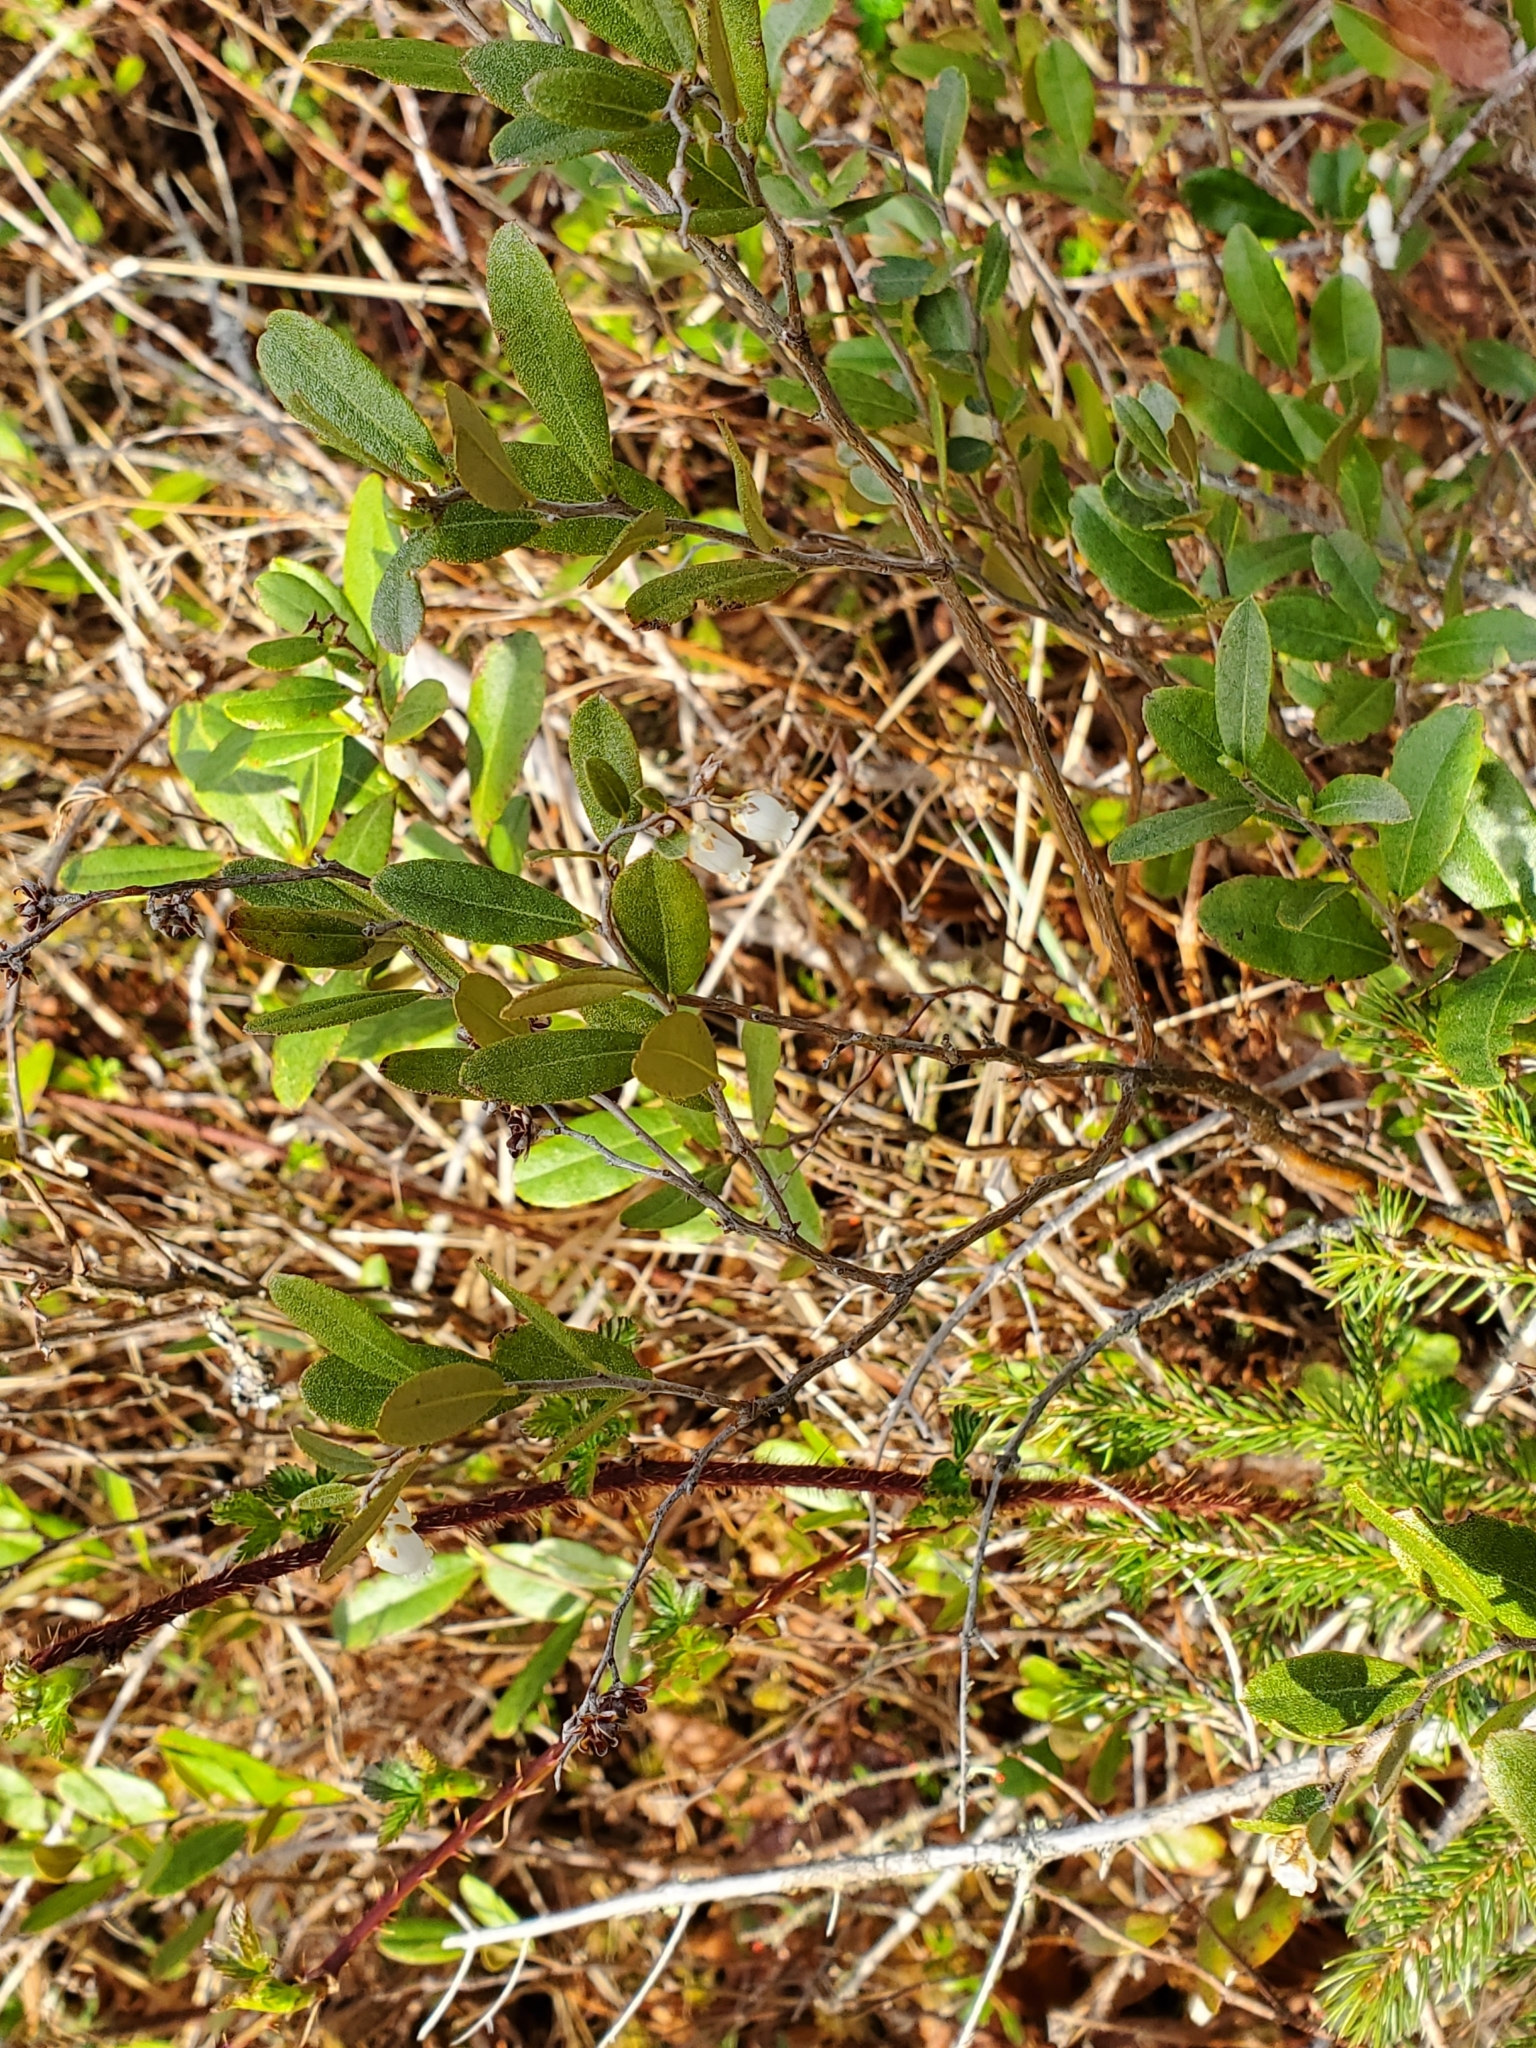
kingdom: Plantae
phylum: Tracheophyta
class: Magnoliopsida
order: Ericales
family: Ericaceae
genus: Chamaedaphne
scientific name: Chamaedaphne calyculata
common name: Leatherleaf
